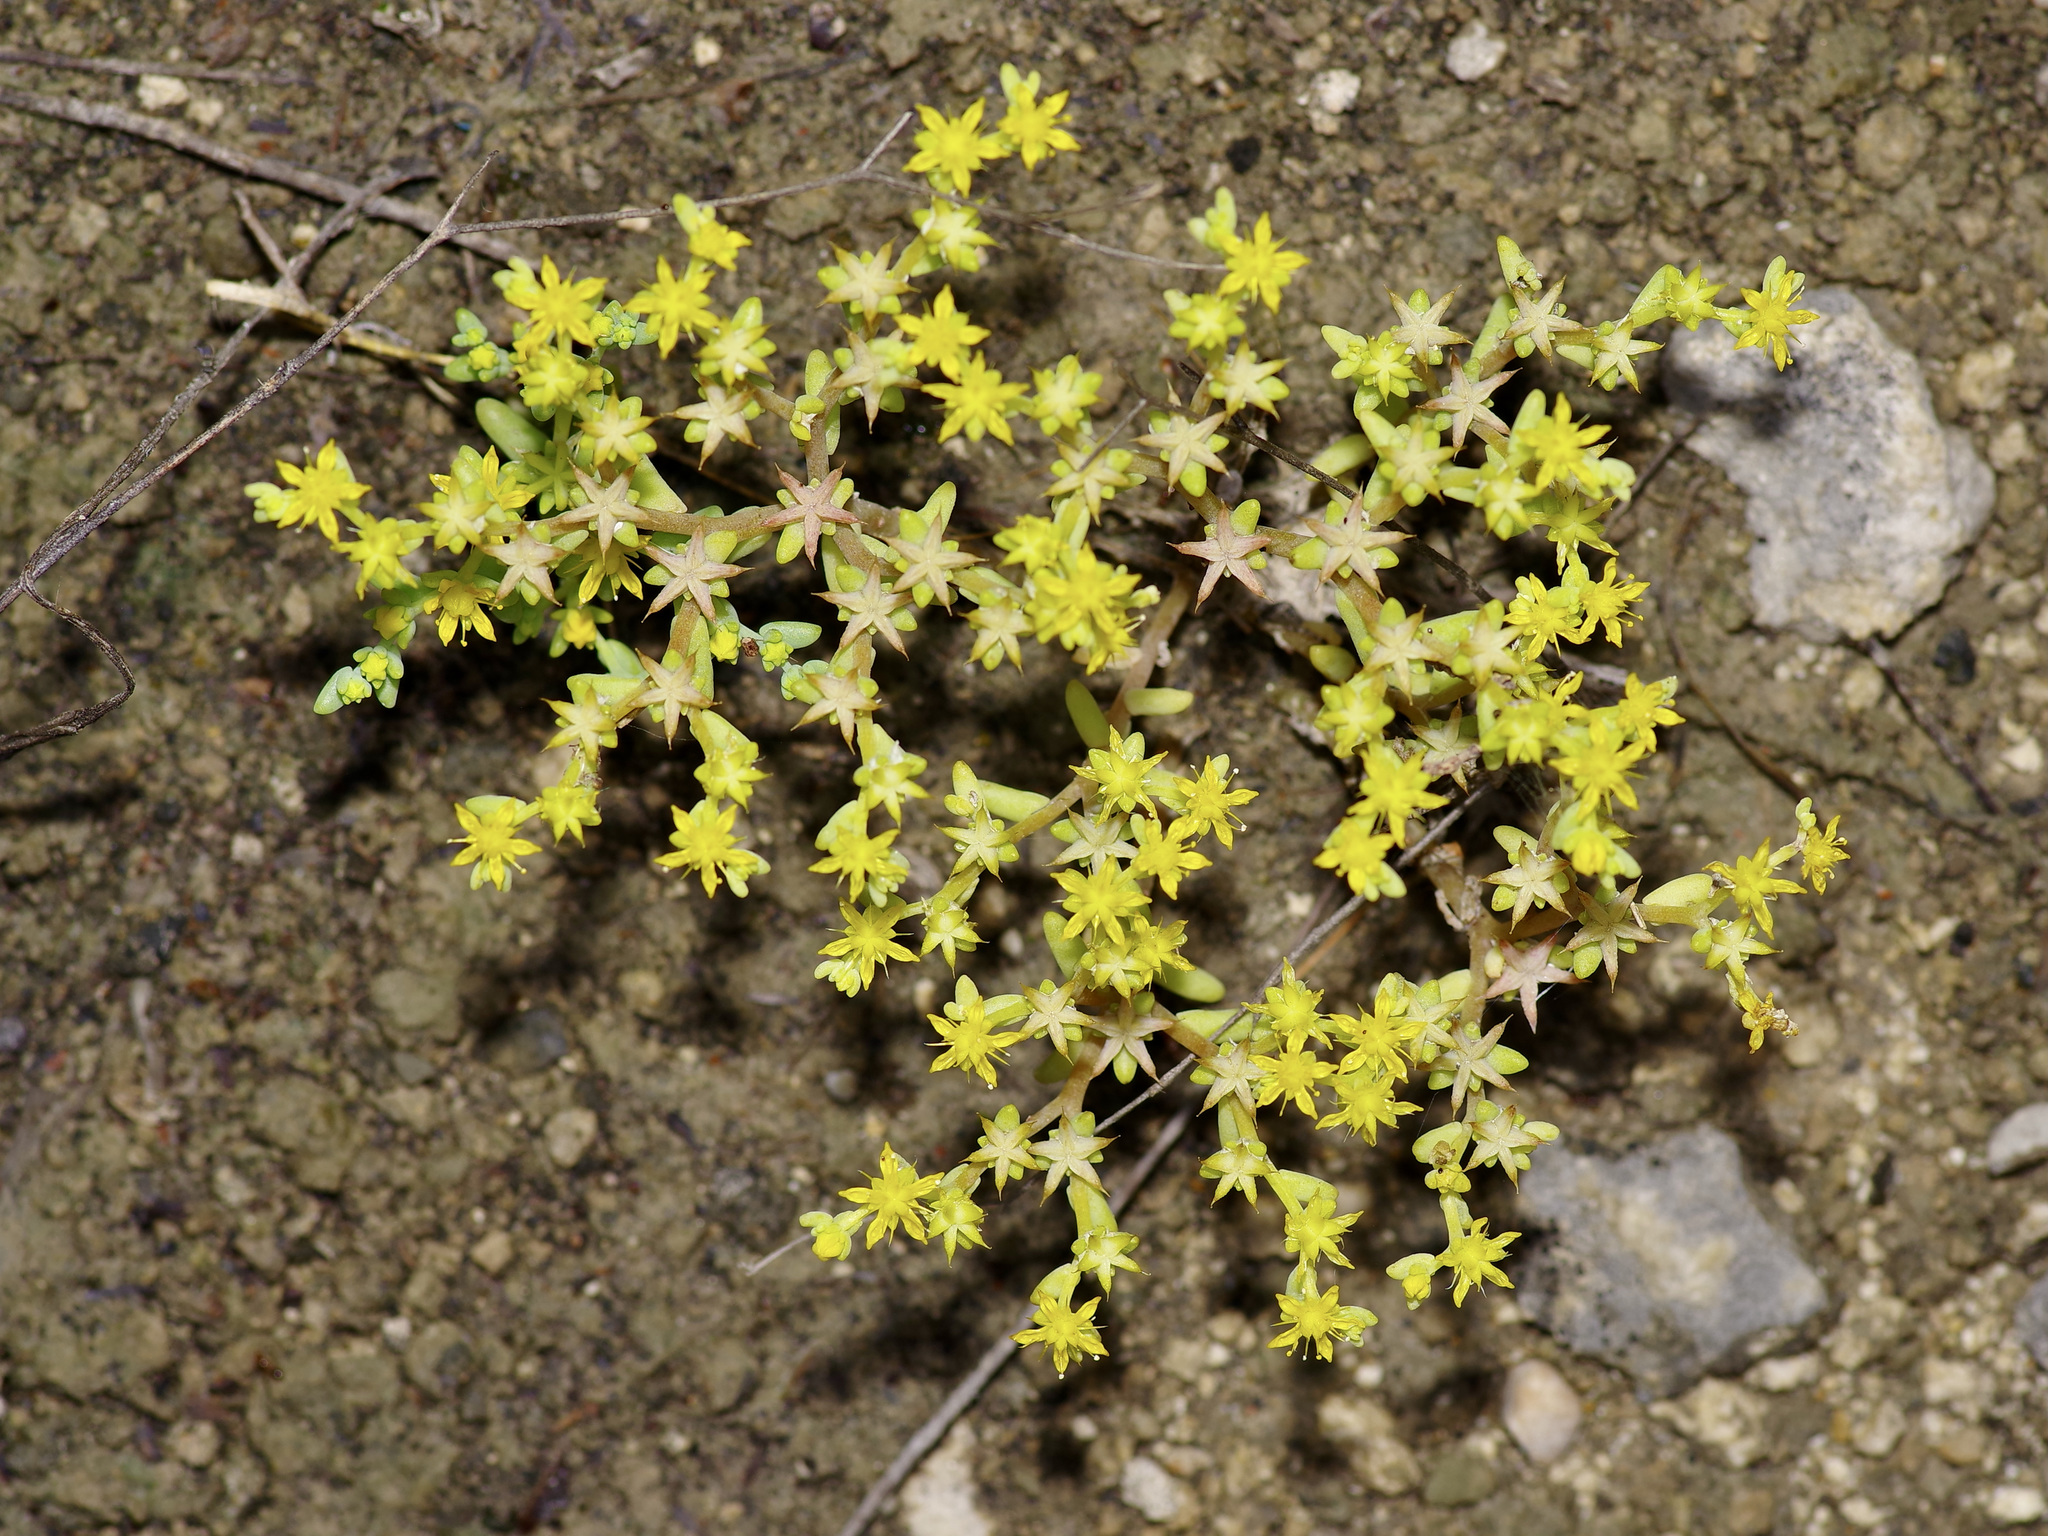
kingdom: Plantae
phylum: Tracheophyta
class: Magnoliopsida
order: Saxifragales
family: Crassulaceae
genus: Sedum
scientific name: Sedum nuttallii
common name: Yellow stonecrop
